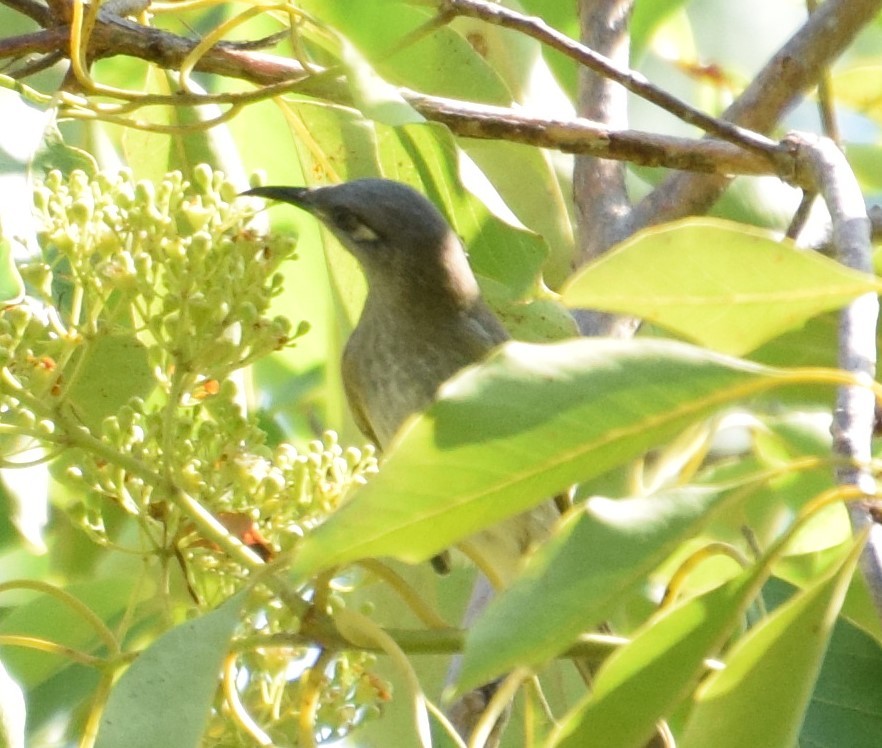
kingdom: Animalia
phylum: Chordata
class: Aves
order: Passeriformes
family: Meliphagidae
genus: Lichmera
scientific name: Lichmera indistincta
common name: Brown honeyeater
